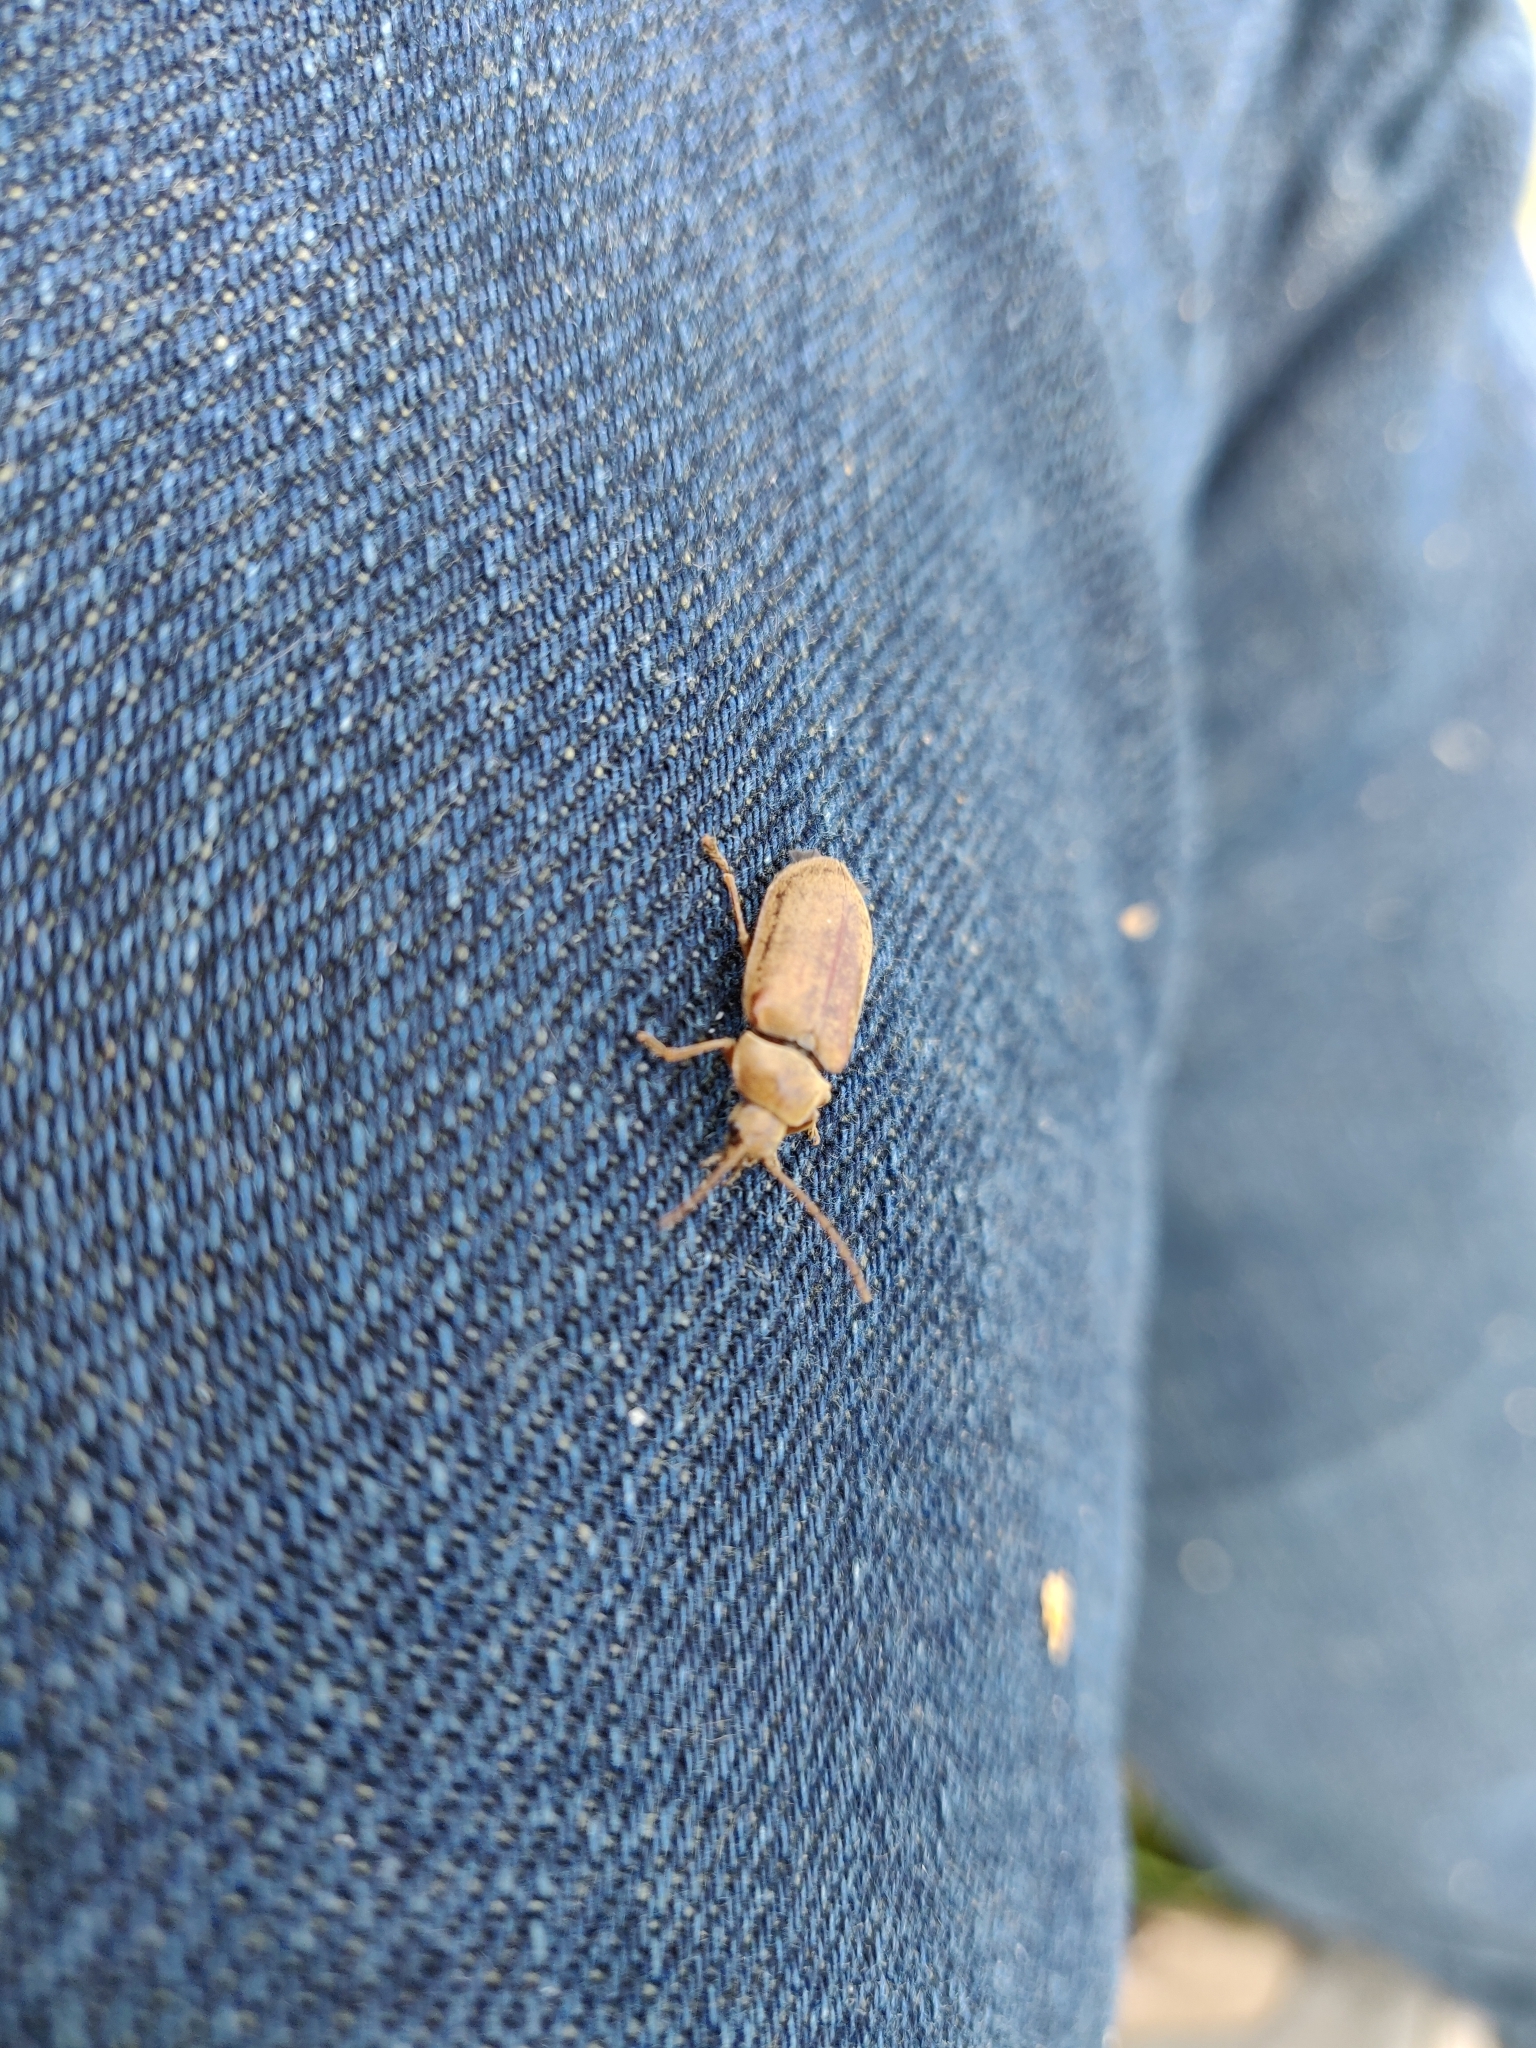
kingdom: Animalia
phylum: Arthropoda
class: Insecta
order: Coleoptera
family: Dascillidae
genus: Dascillus
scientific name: Dascillus cervinus
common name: Orchid beetle
